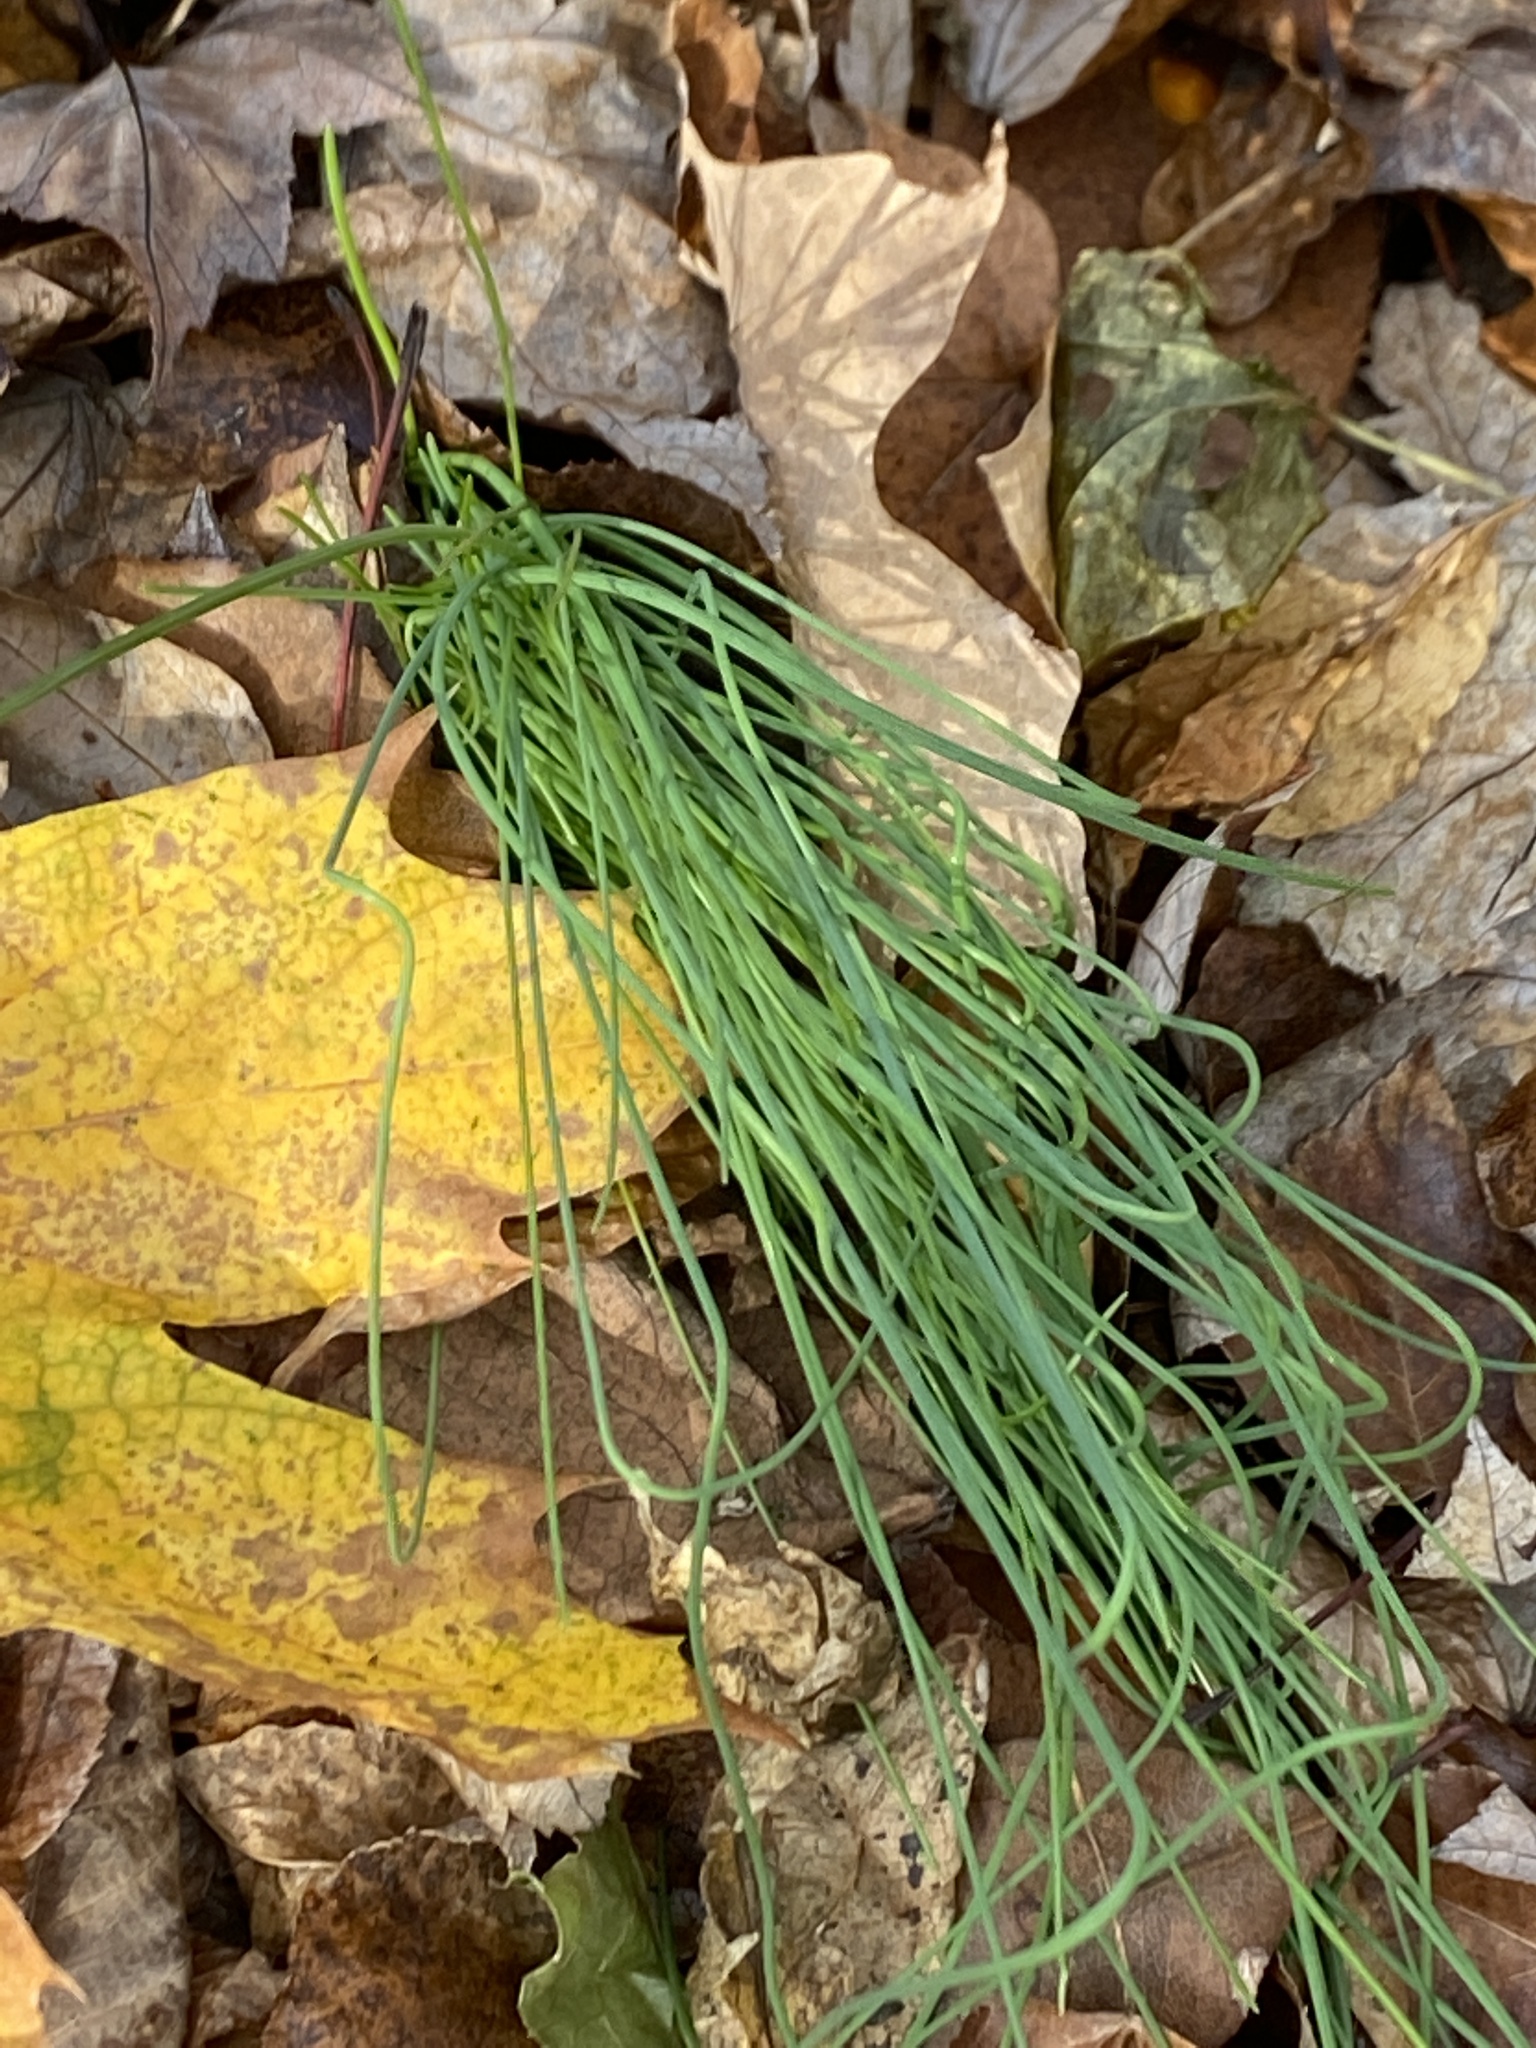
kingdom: Plantae
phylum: Tracheophyta
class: Liliopsida
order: Asparagales
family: Amaryllidaceae
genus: Allium
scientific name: Allium vineale
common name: Crow garlic
